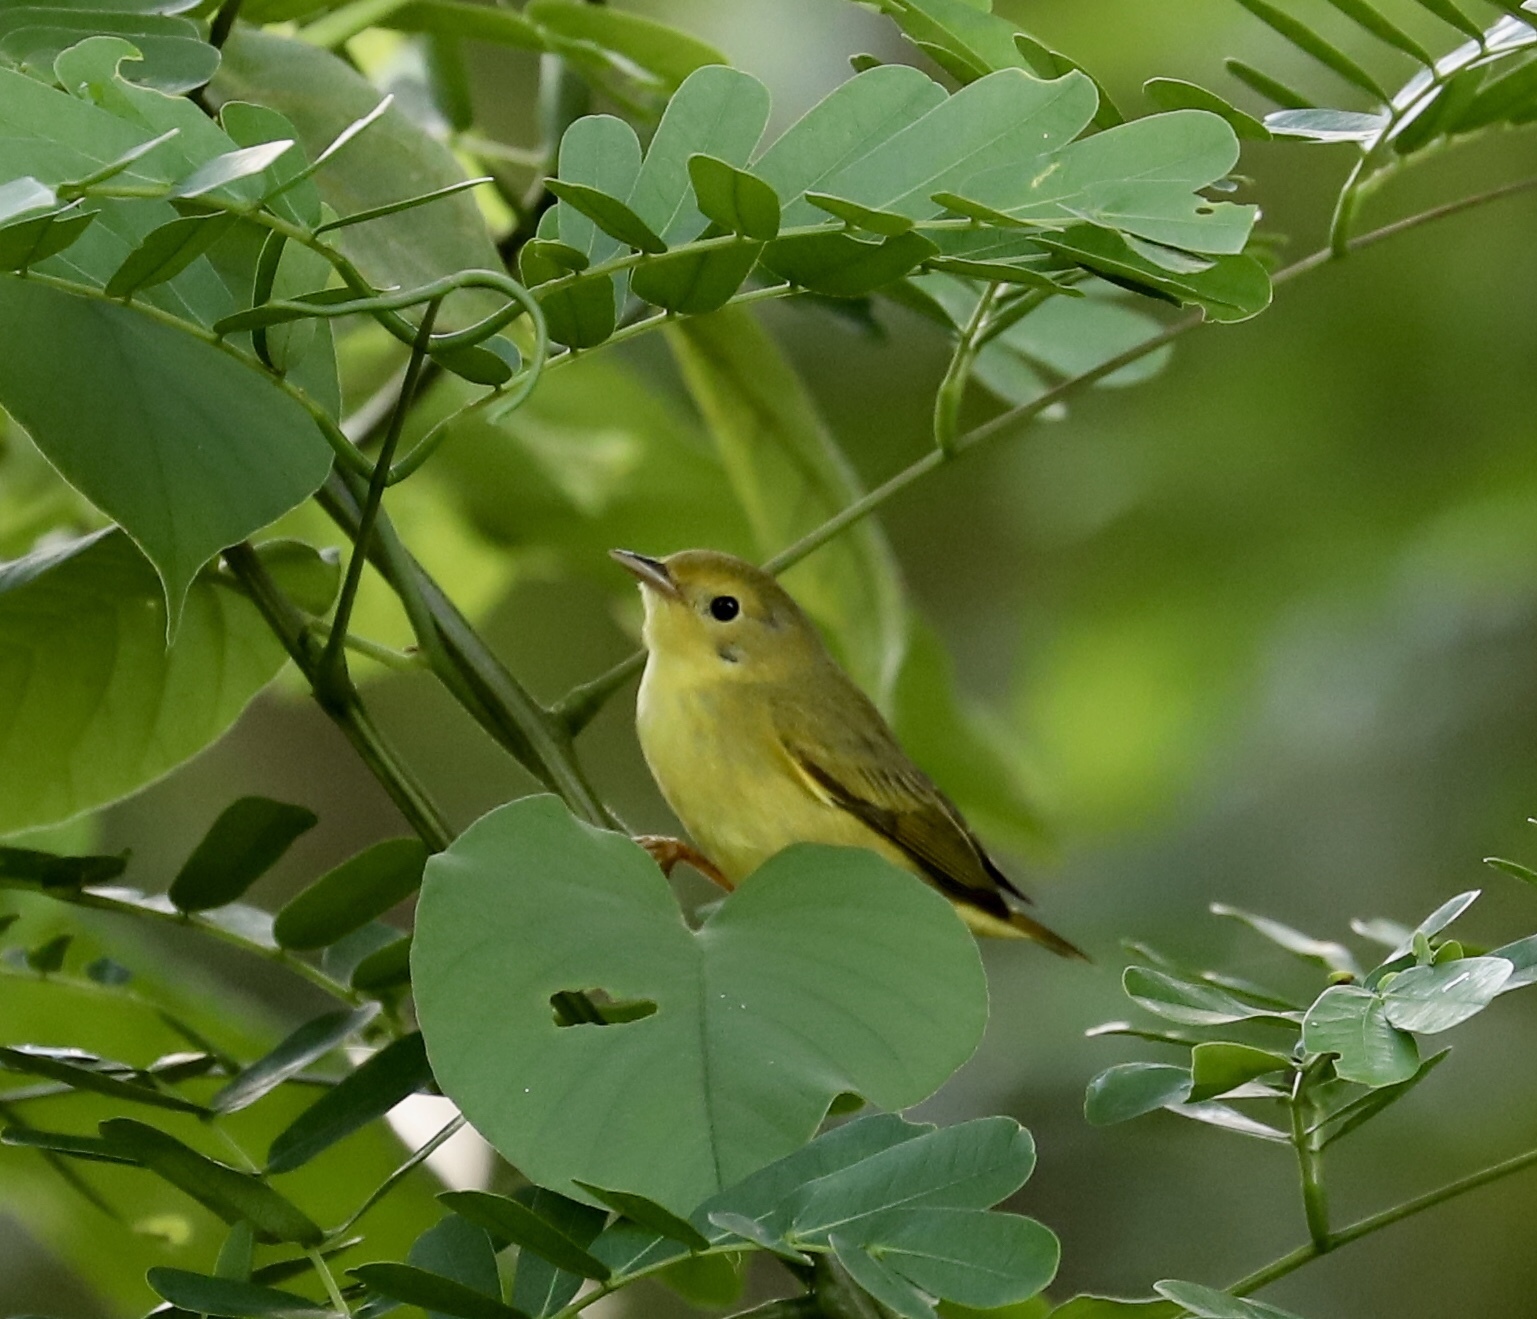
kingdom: Animalia
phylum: Chordata
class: Aves
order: Passeriformes
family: Parulidae
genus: Setophaga
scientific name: Setophaga petechia
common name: Yellow warbler
